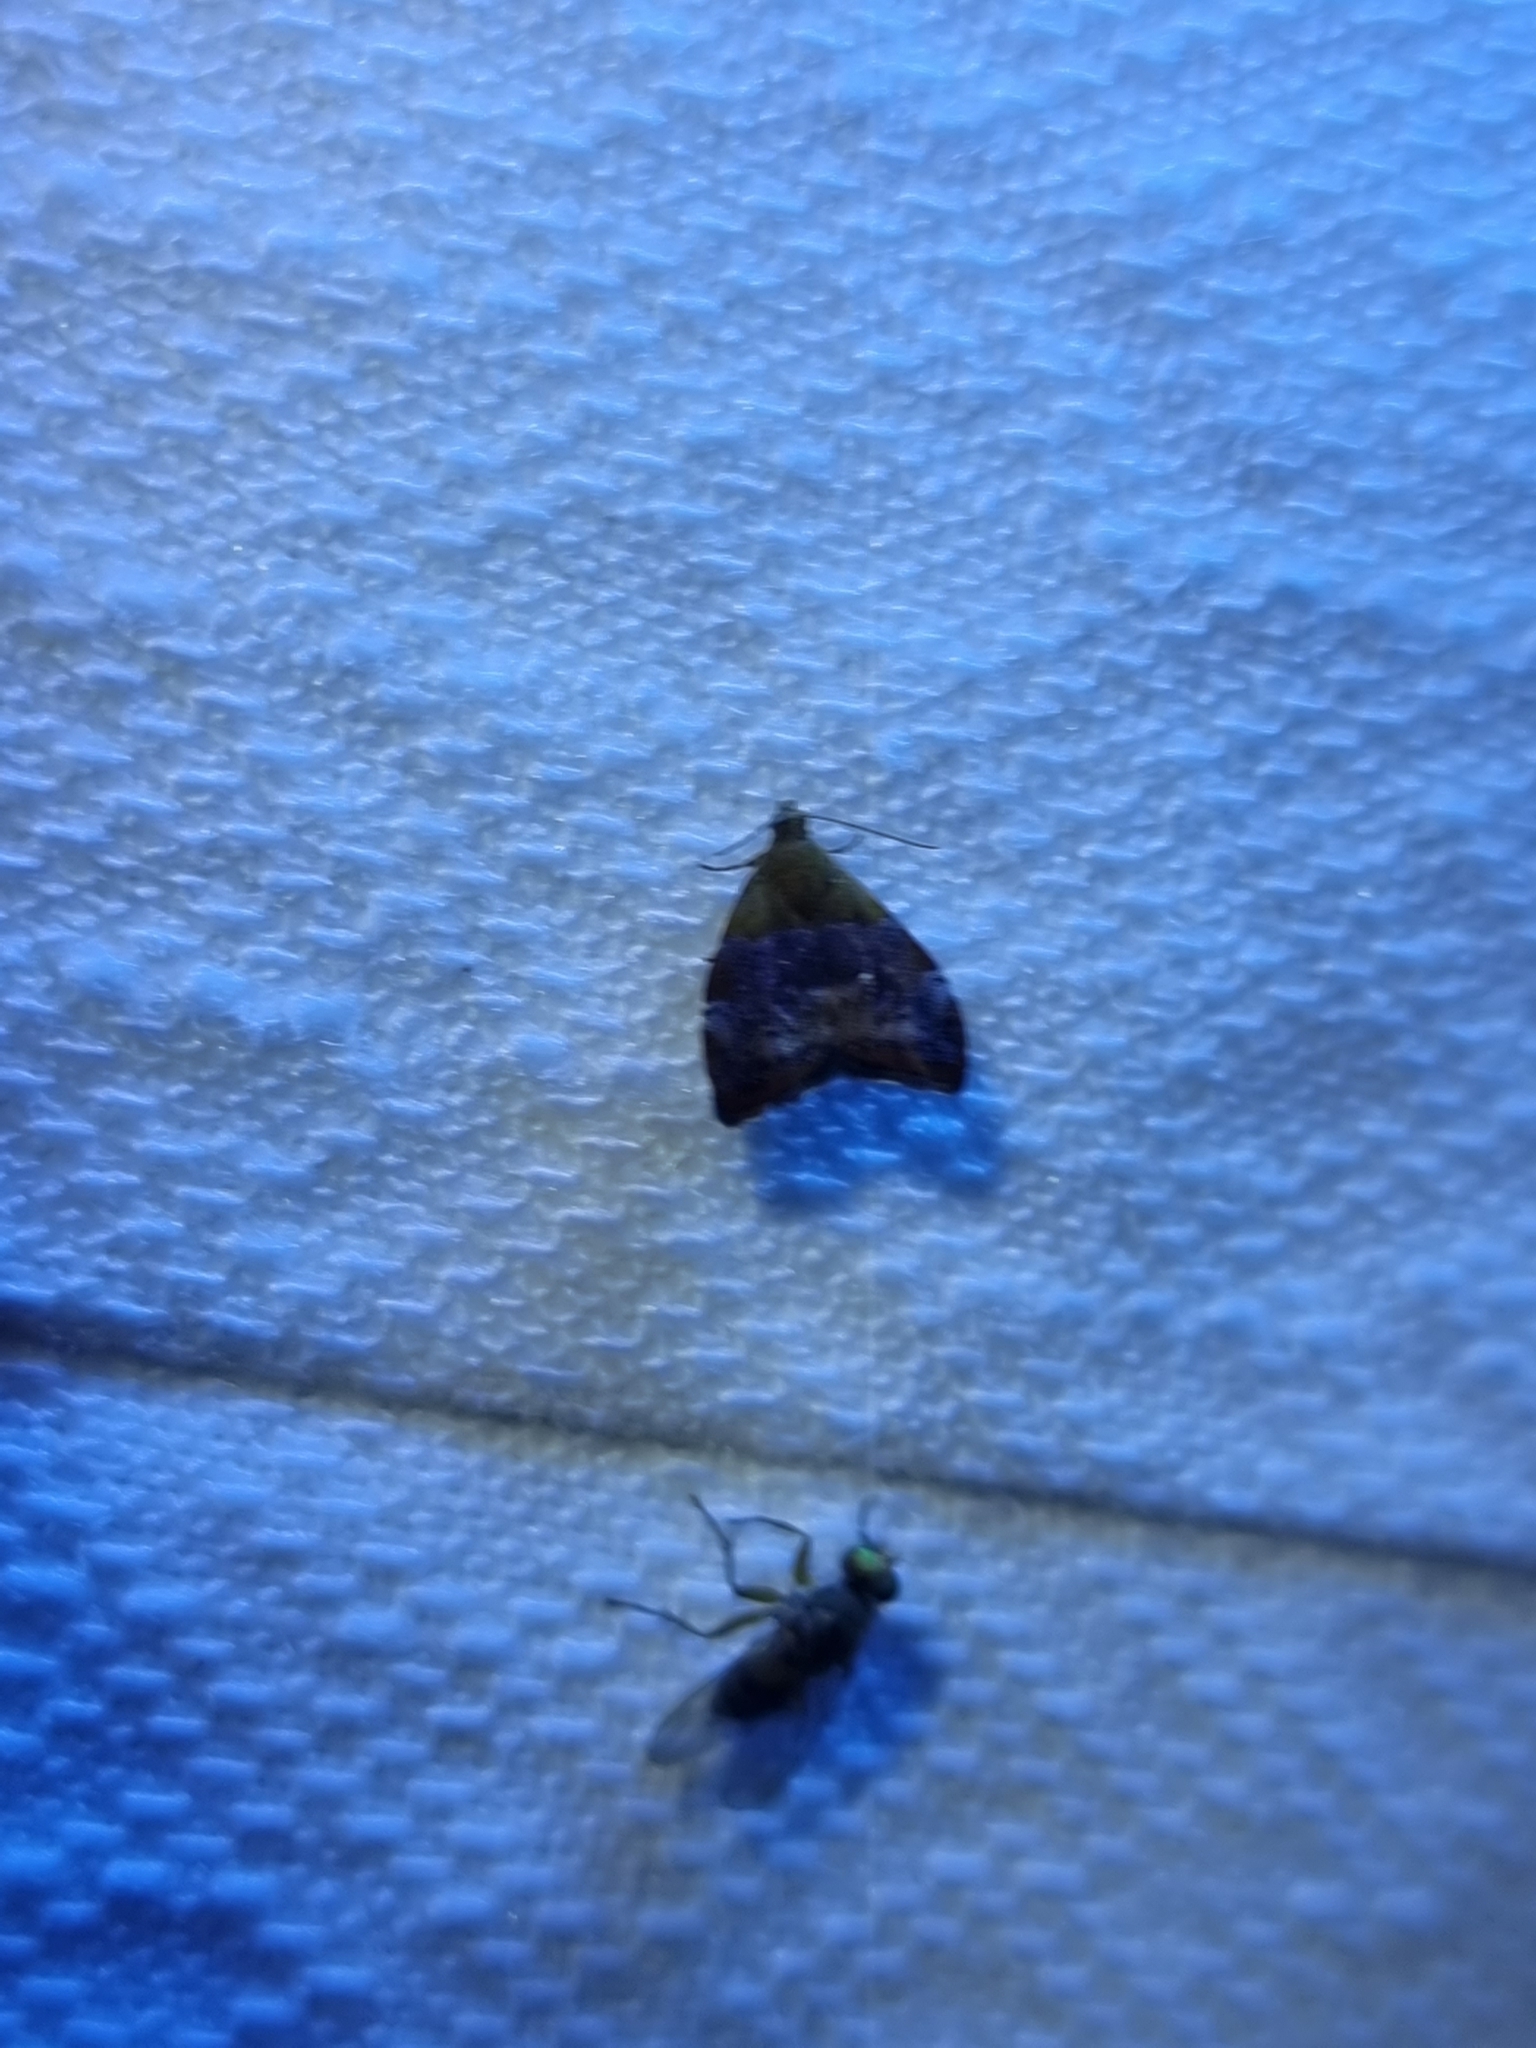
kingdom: Animalia
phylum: Arthropoda
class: Insecta
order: Lepidoptera
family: Choreutidae
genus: Choreutis
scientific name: Choreutis sycopola
